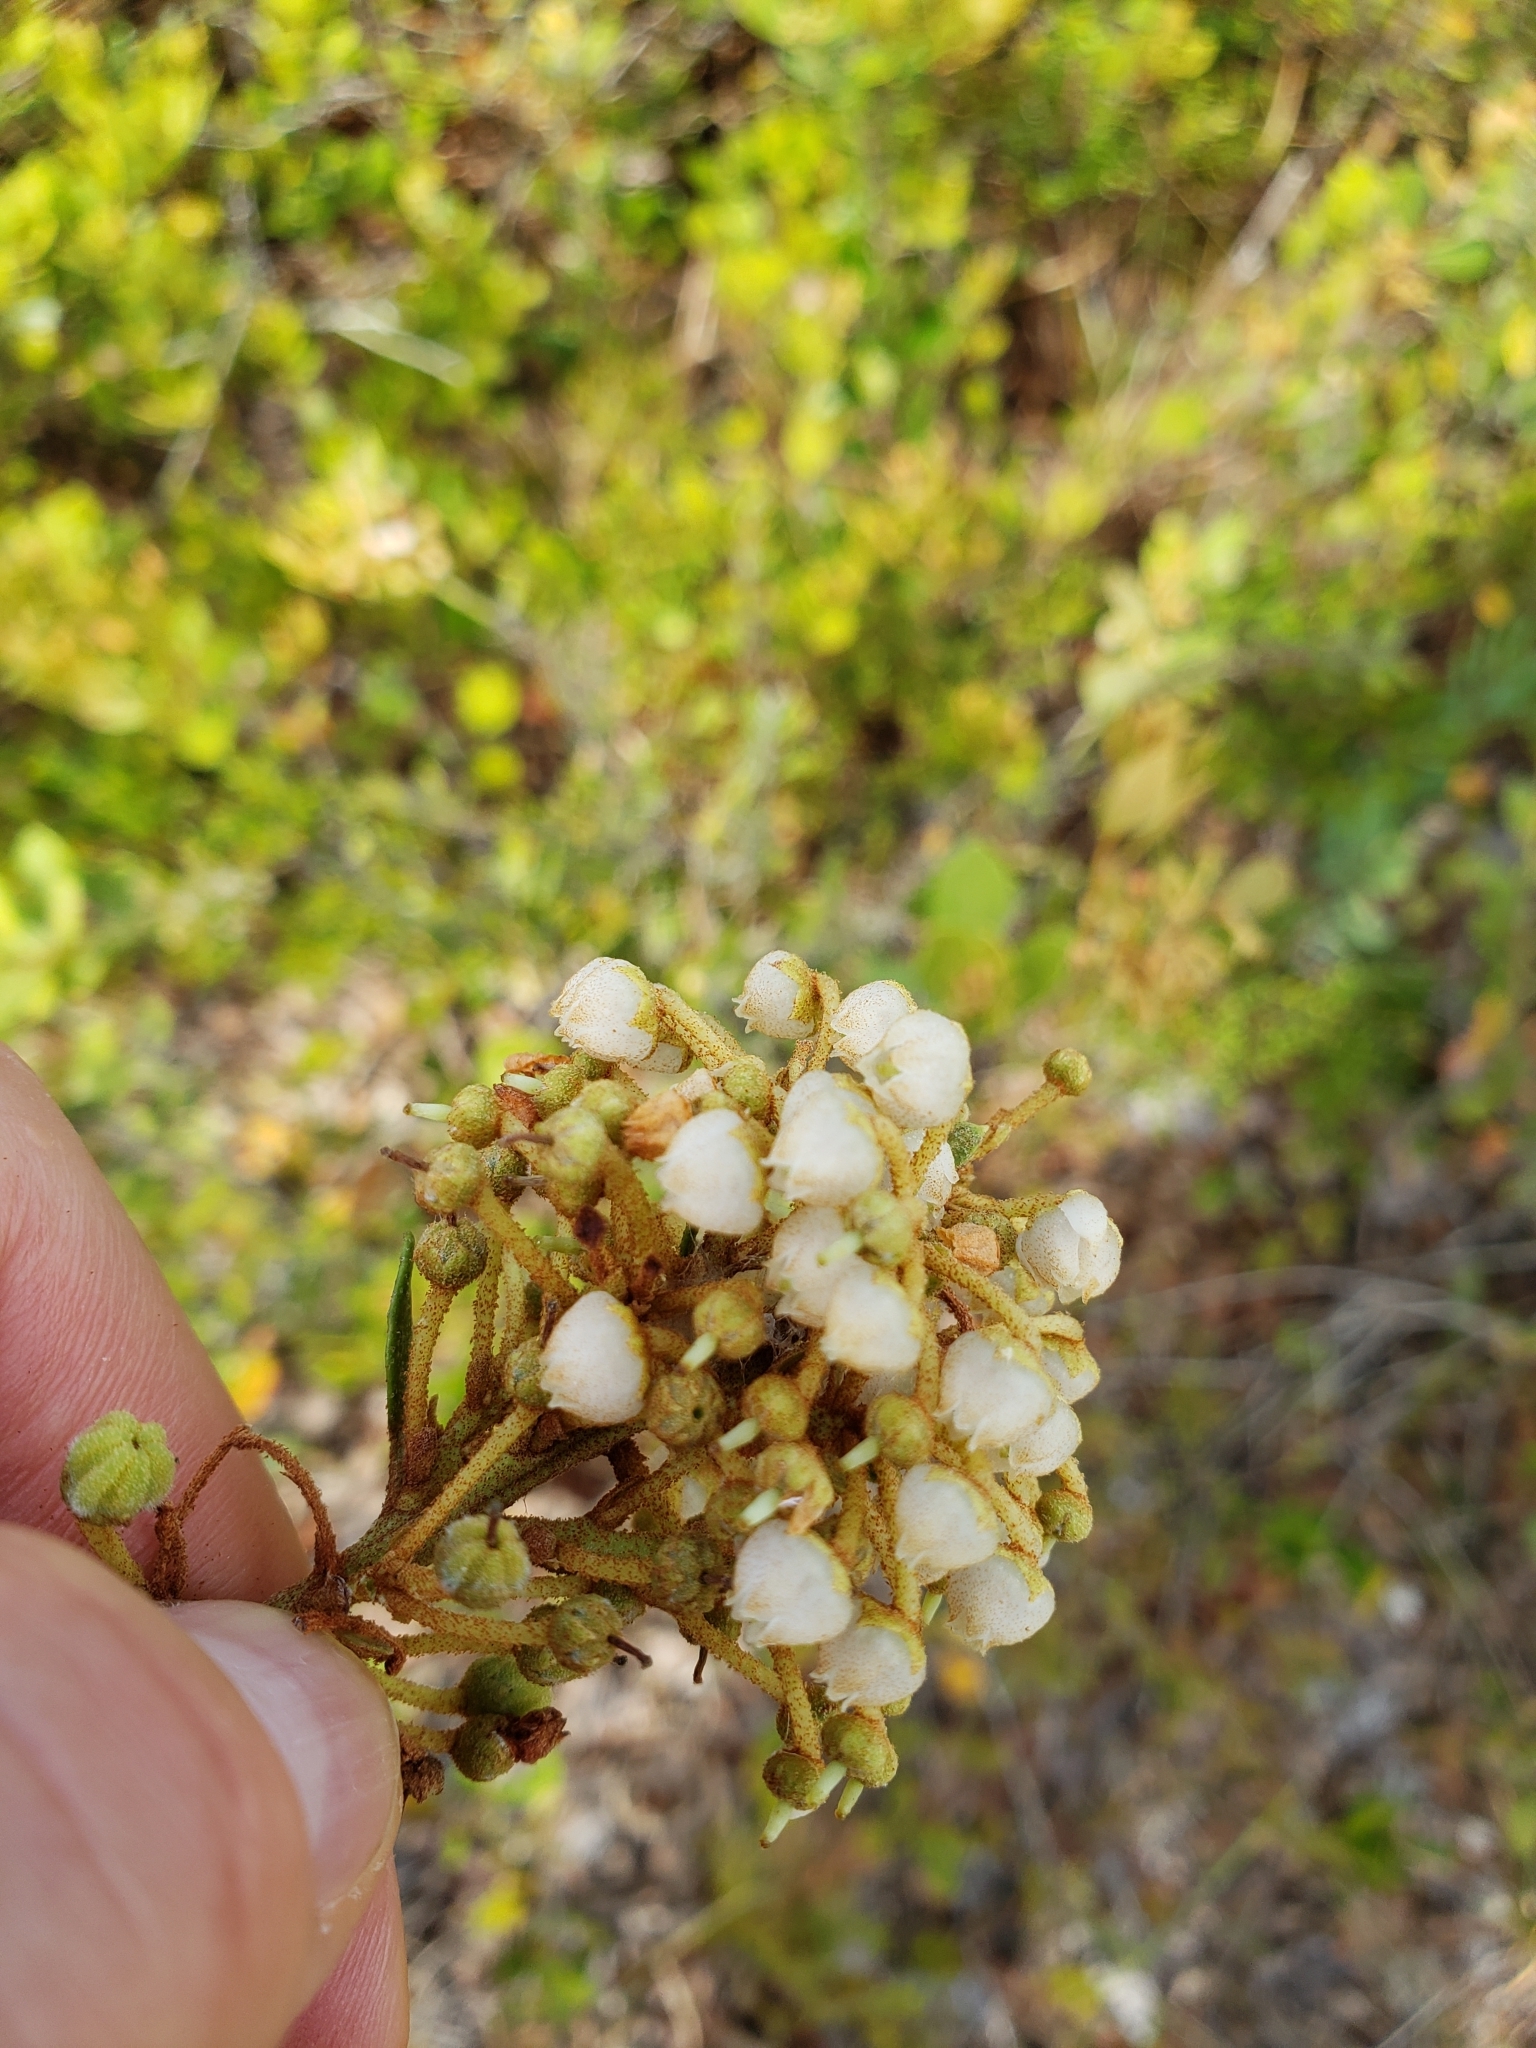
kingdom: Plantae
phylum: Tracheophyta
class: Magnoliopsida
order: Ericales
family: Ericaceae
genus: Lyonia
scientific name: Lyonia fruticosa
